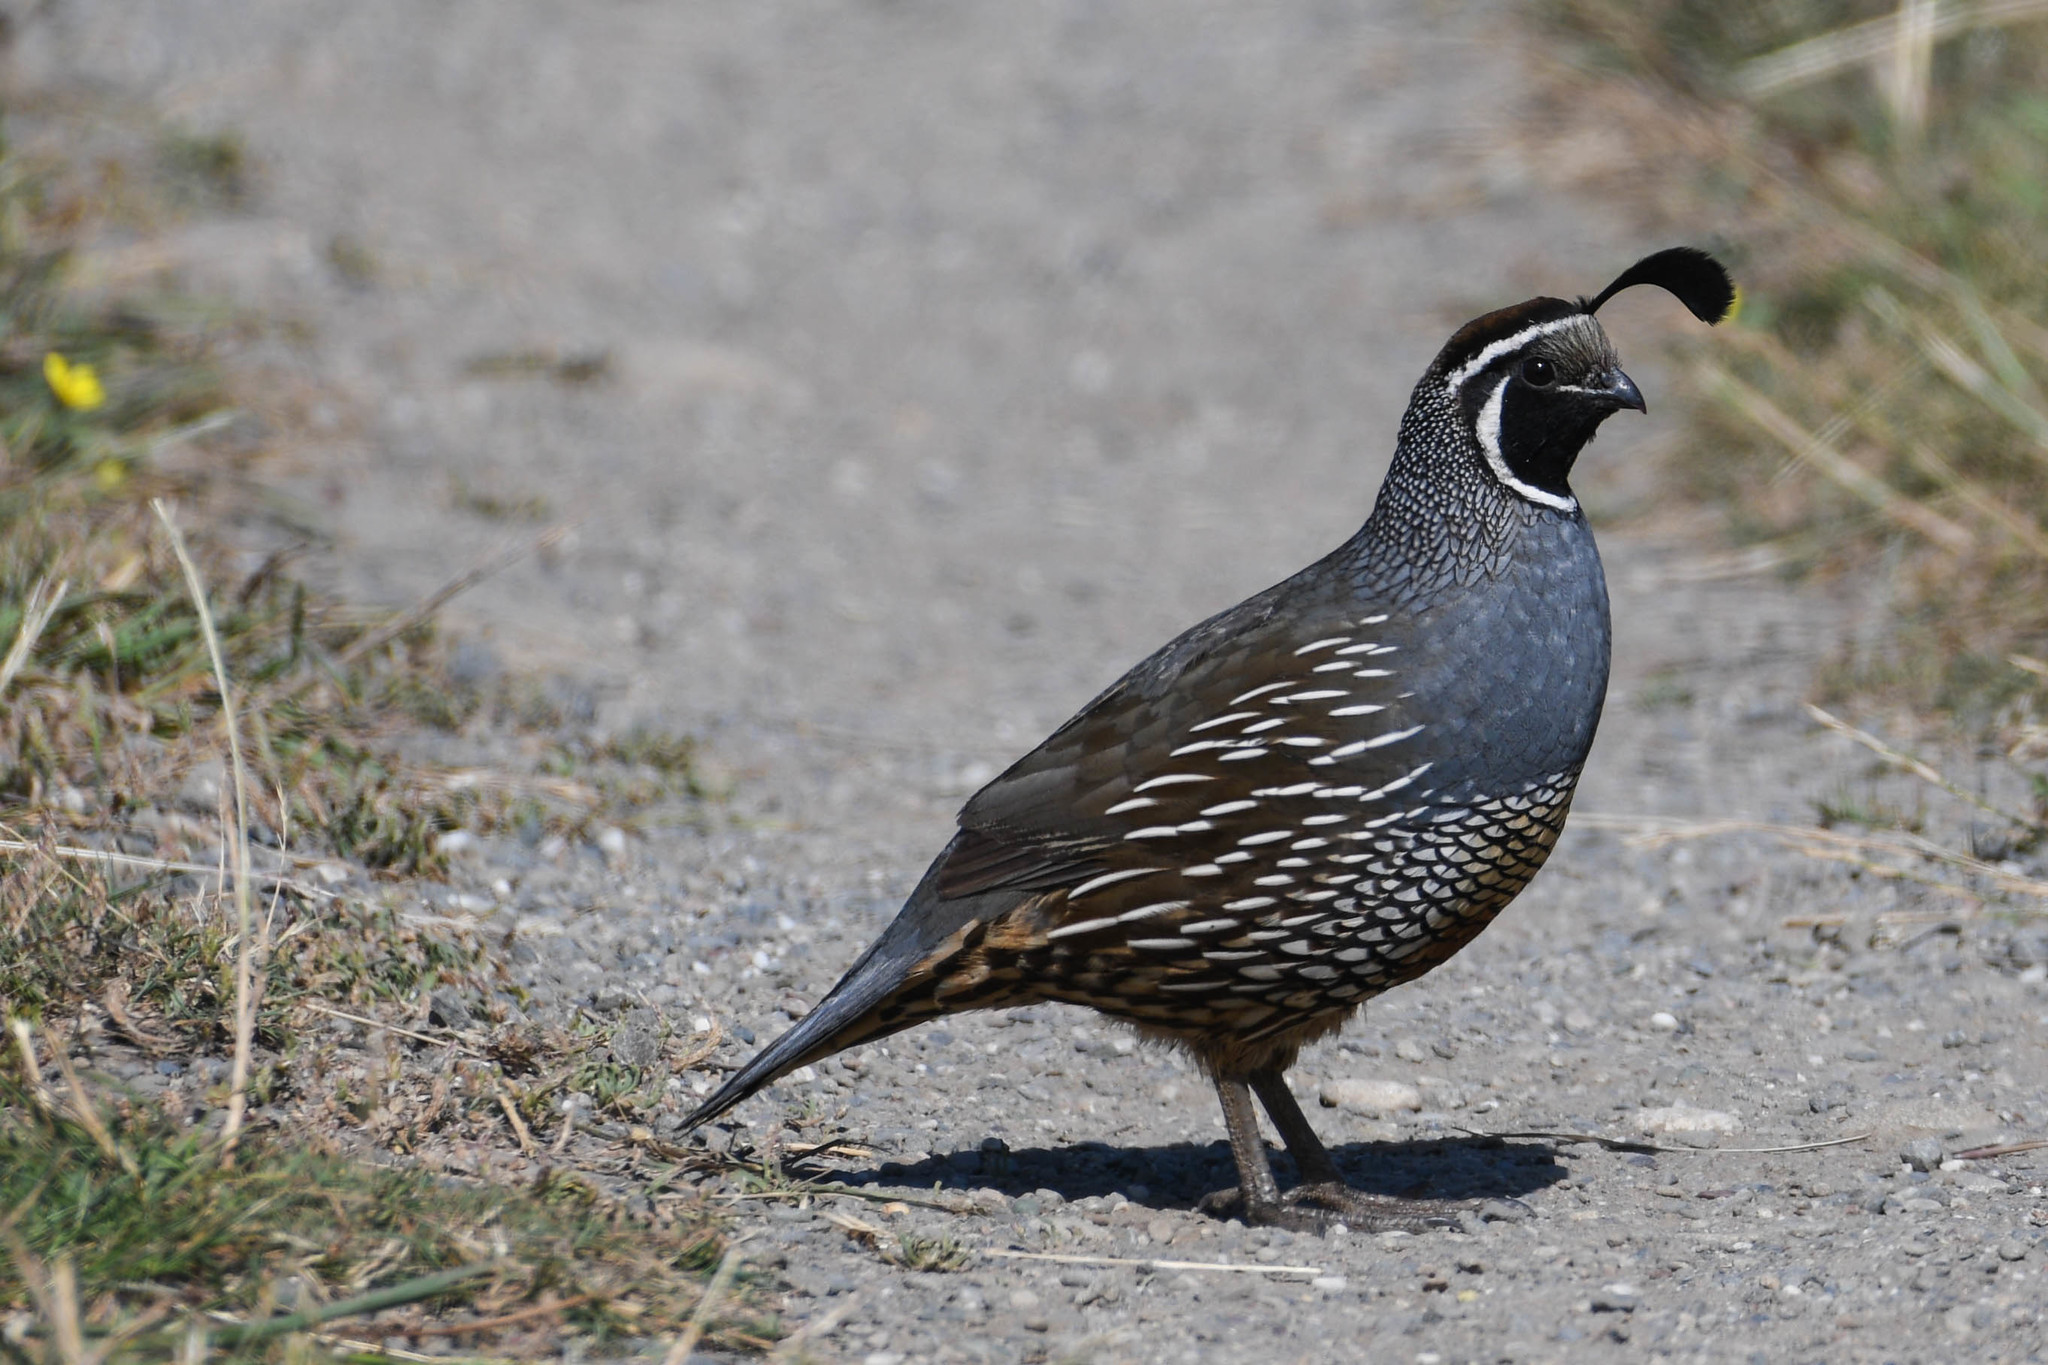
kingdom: Animalia
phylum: Chordata
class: Aves
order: Galliformes
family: Odontophoridae
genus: Callipepla
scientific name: Callipepla californica
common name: California quail
